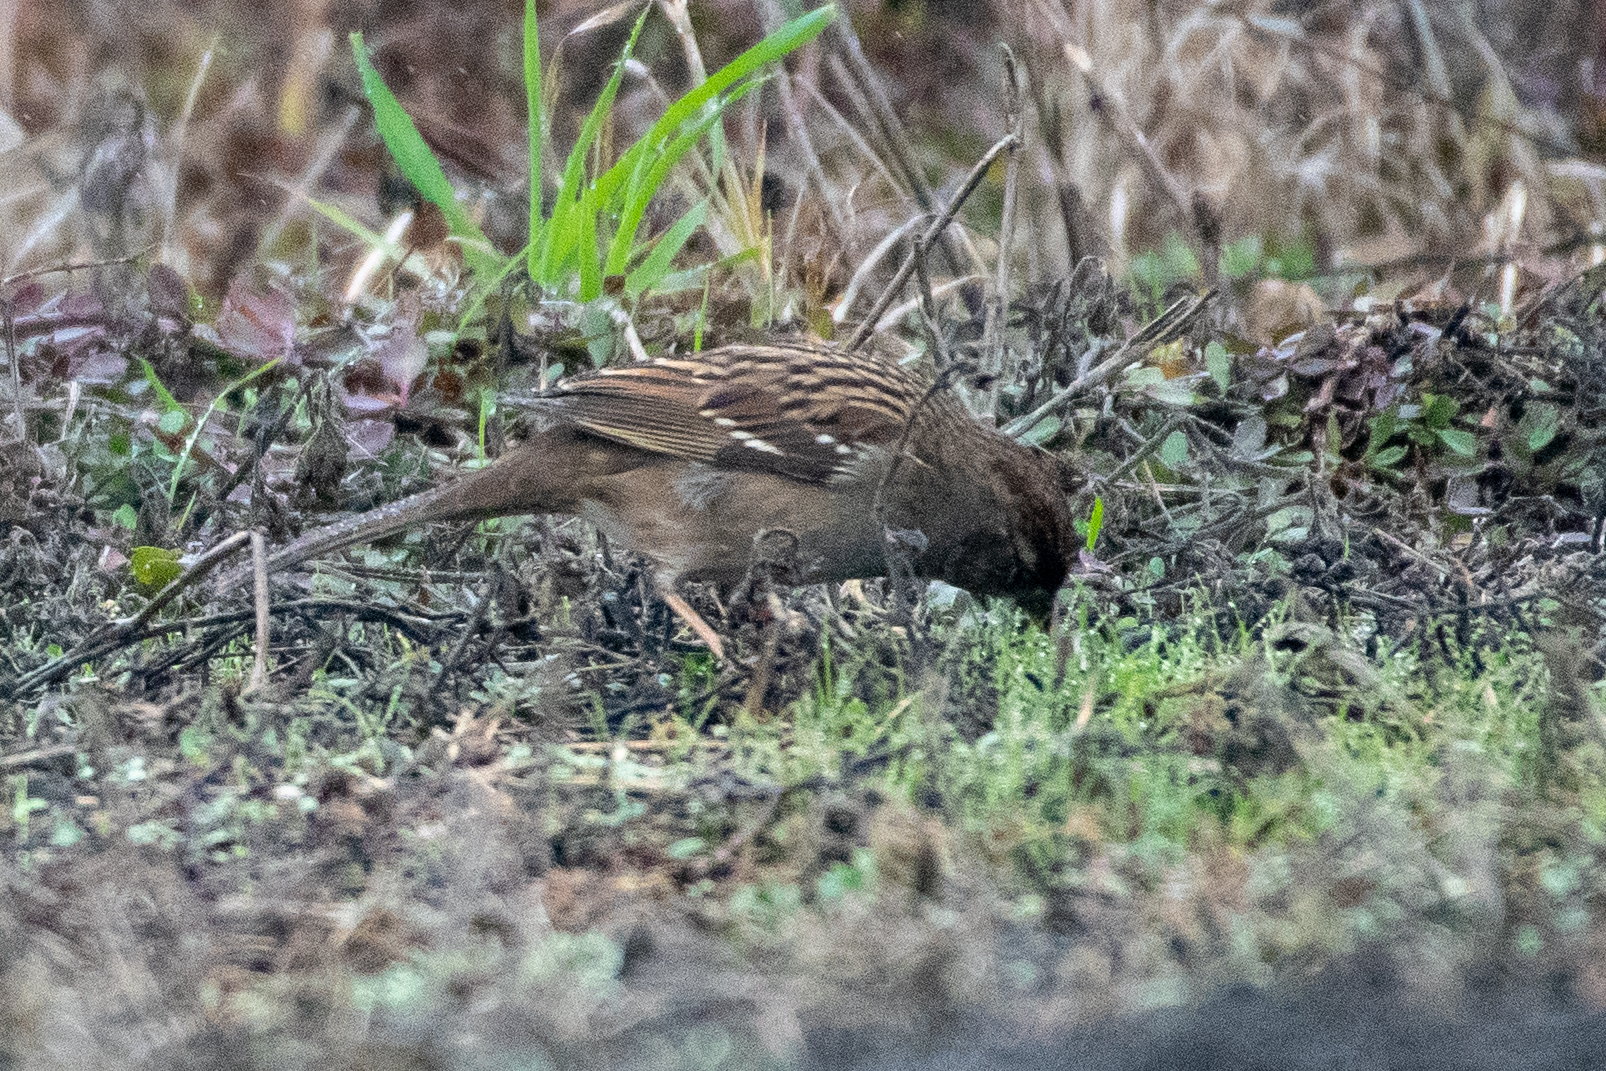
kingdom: Animalia
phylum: Chordata
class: Aves
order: Passeriformes
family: Passerellidae
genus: Zonotrichia
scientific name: Zonotrichia atricapilla
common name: Golden-crowned sparrow
